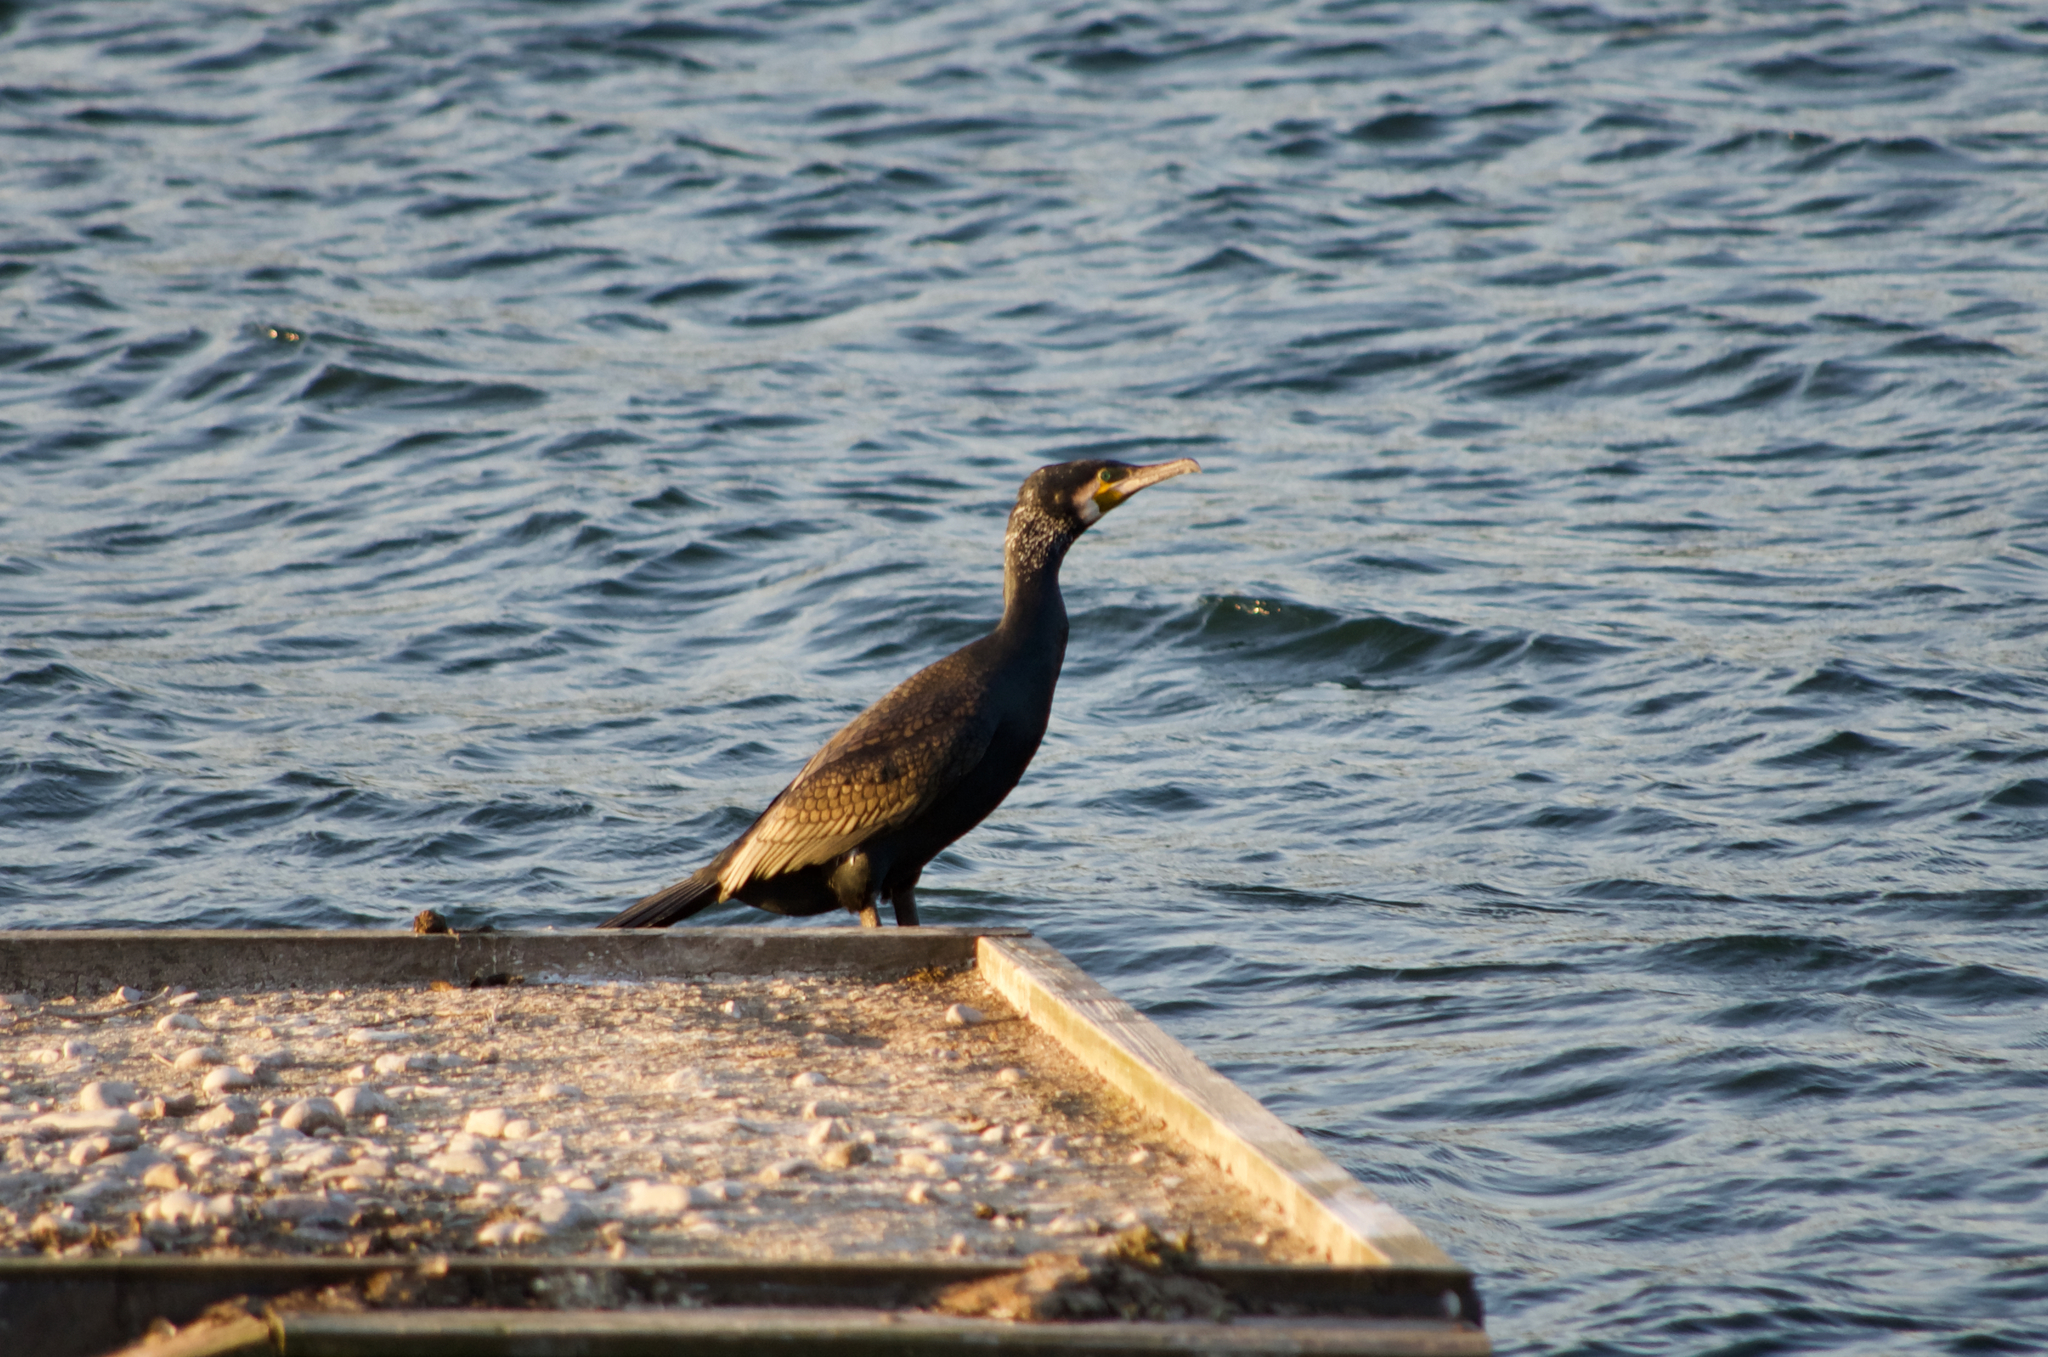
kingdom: Animalia
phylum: Chordata
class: Aves
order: Suliformes
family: Phalacrocoracidae
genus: Phalacrocorax
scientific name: Phalacrocorax carbo
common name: Great cormorant
